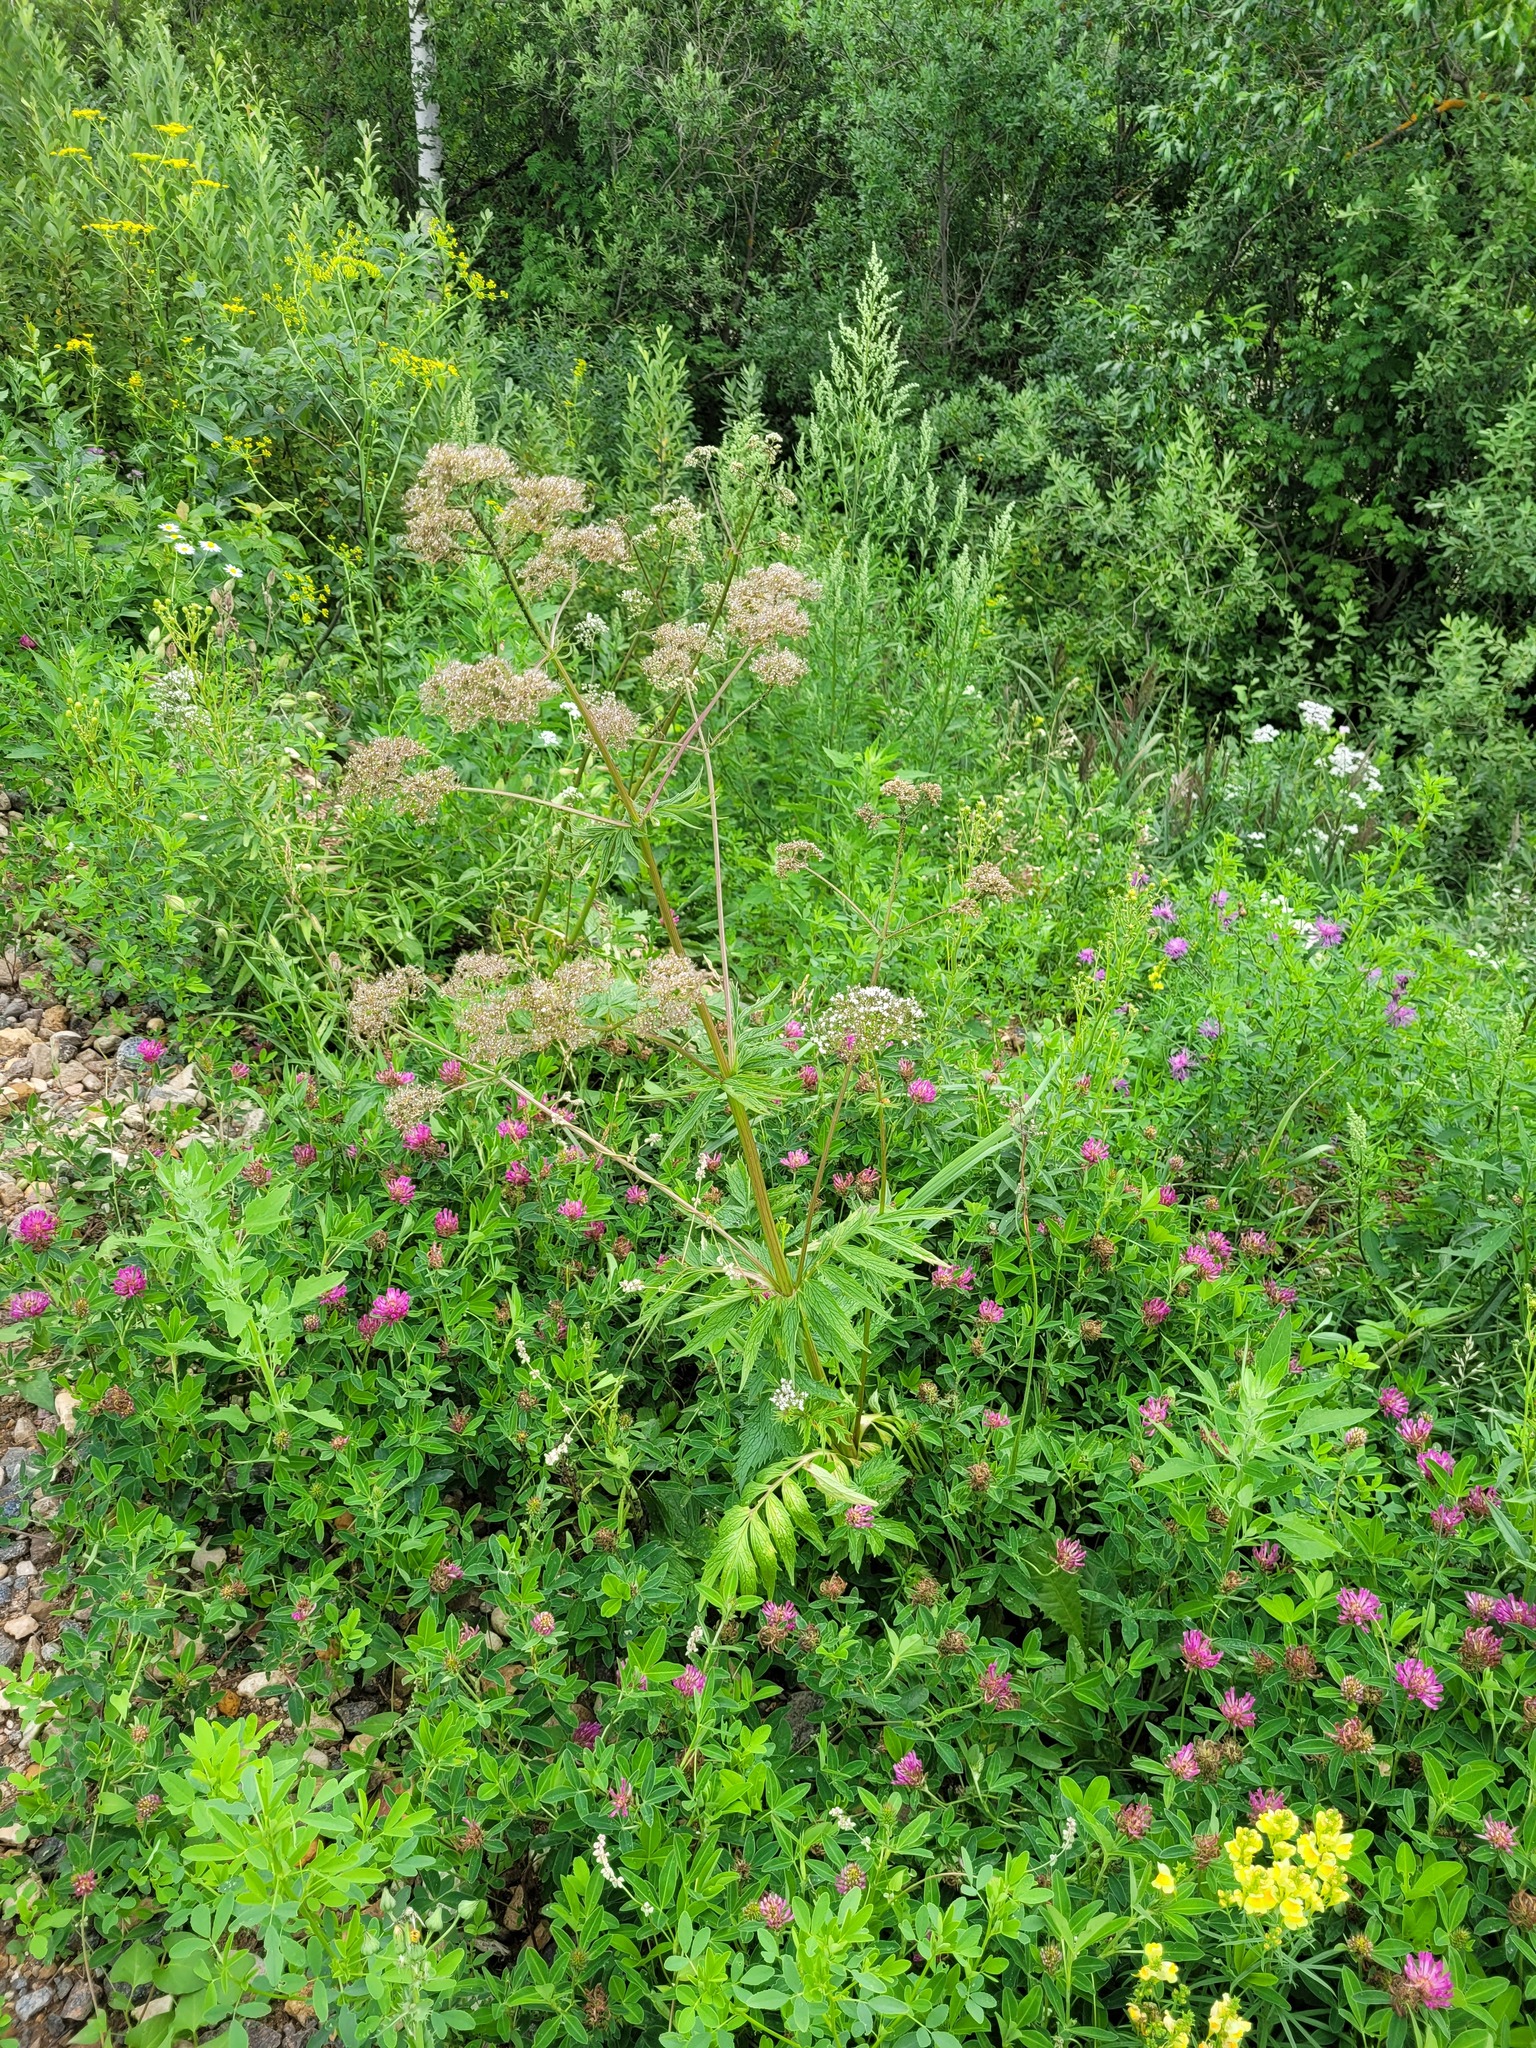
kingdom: Plantae
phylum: Tracheophyta
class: Magnoliopsida
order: Dipsacales
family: Caprifoliaceae
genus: Valeriana
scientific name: Valeriana officinalis
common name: Common valerian
